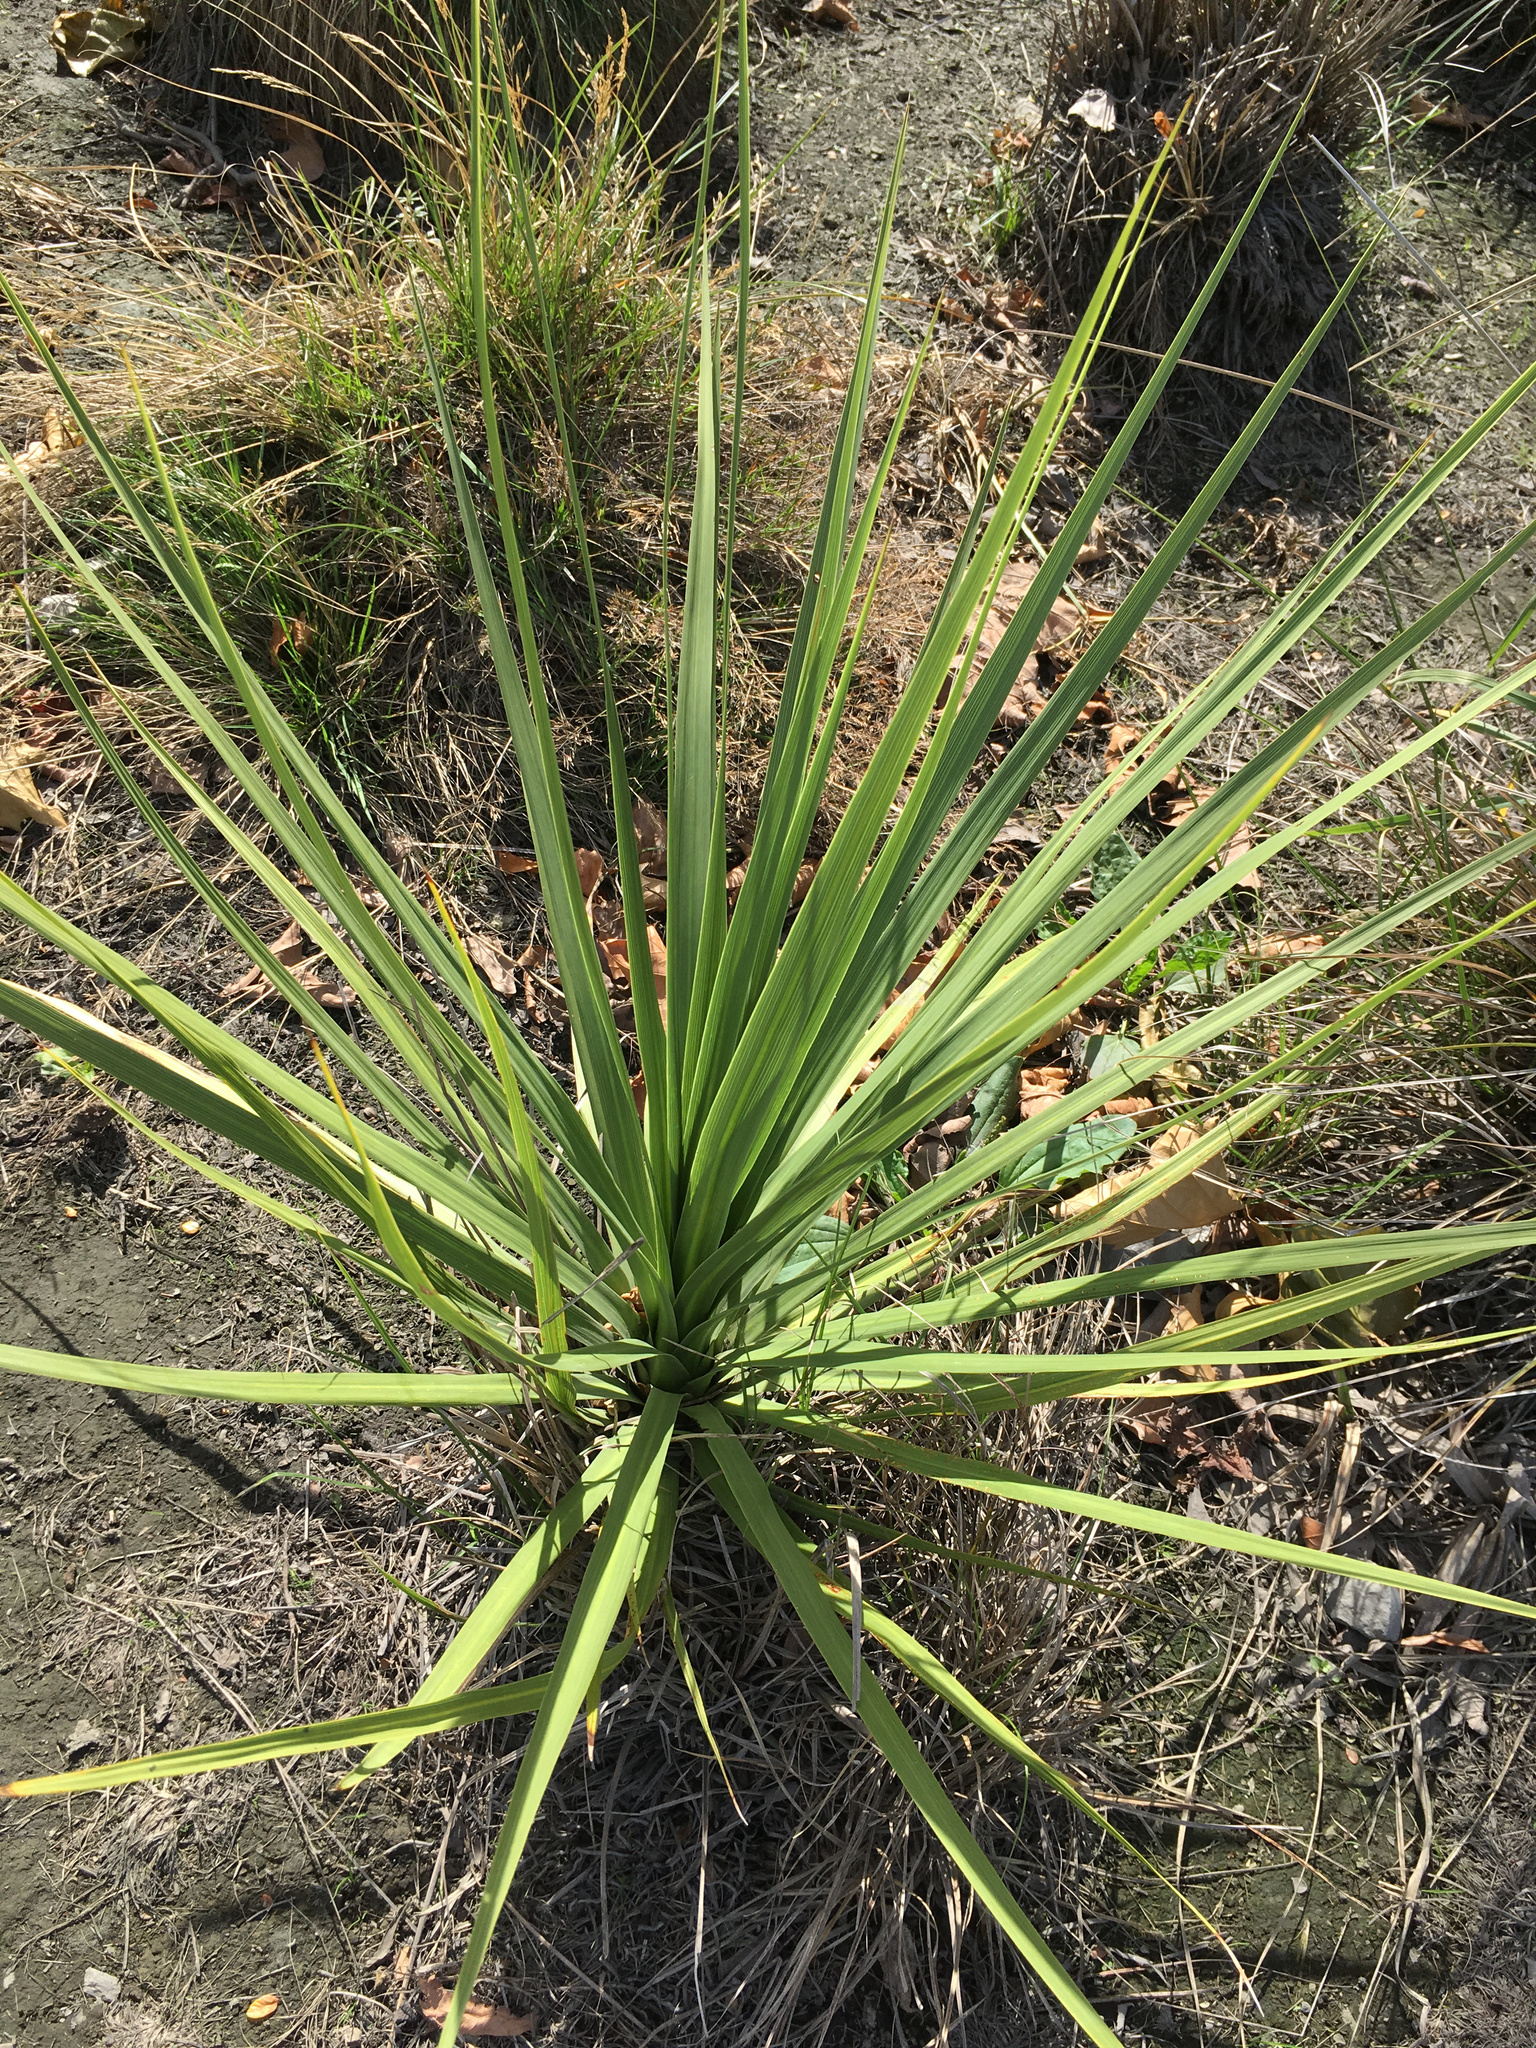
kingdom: Plantae
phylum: Tracheophyta
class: Liliopsida
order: Asparagales
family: Asparagaceae
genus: Cordyline
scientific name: Cordyline australis
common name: Cabbage-palm
